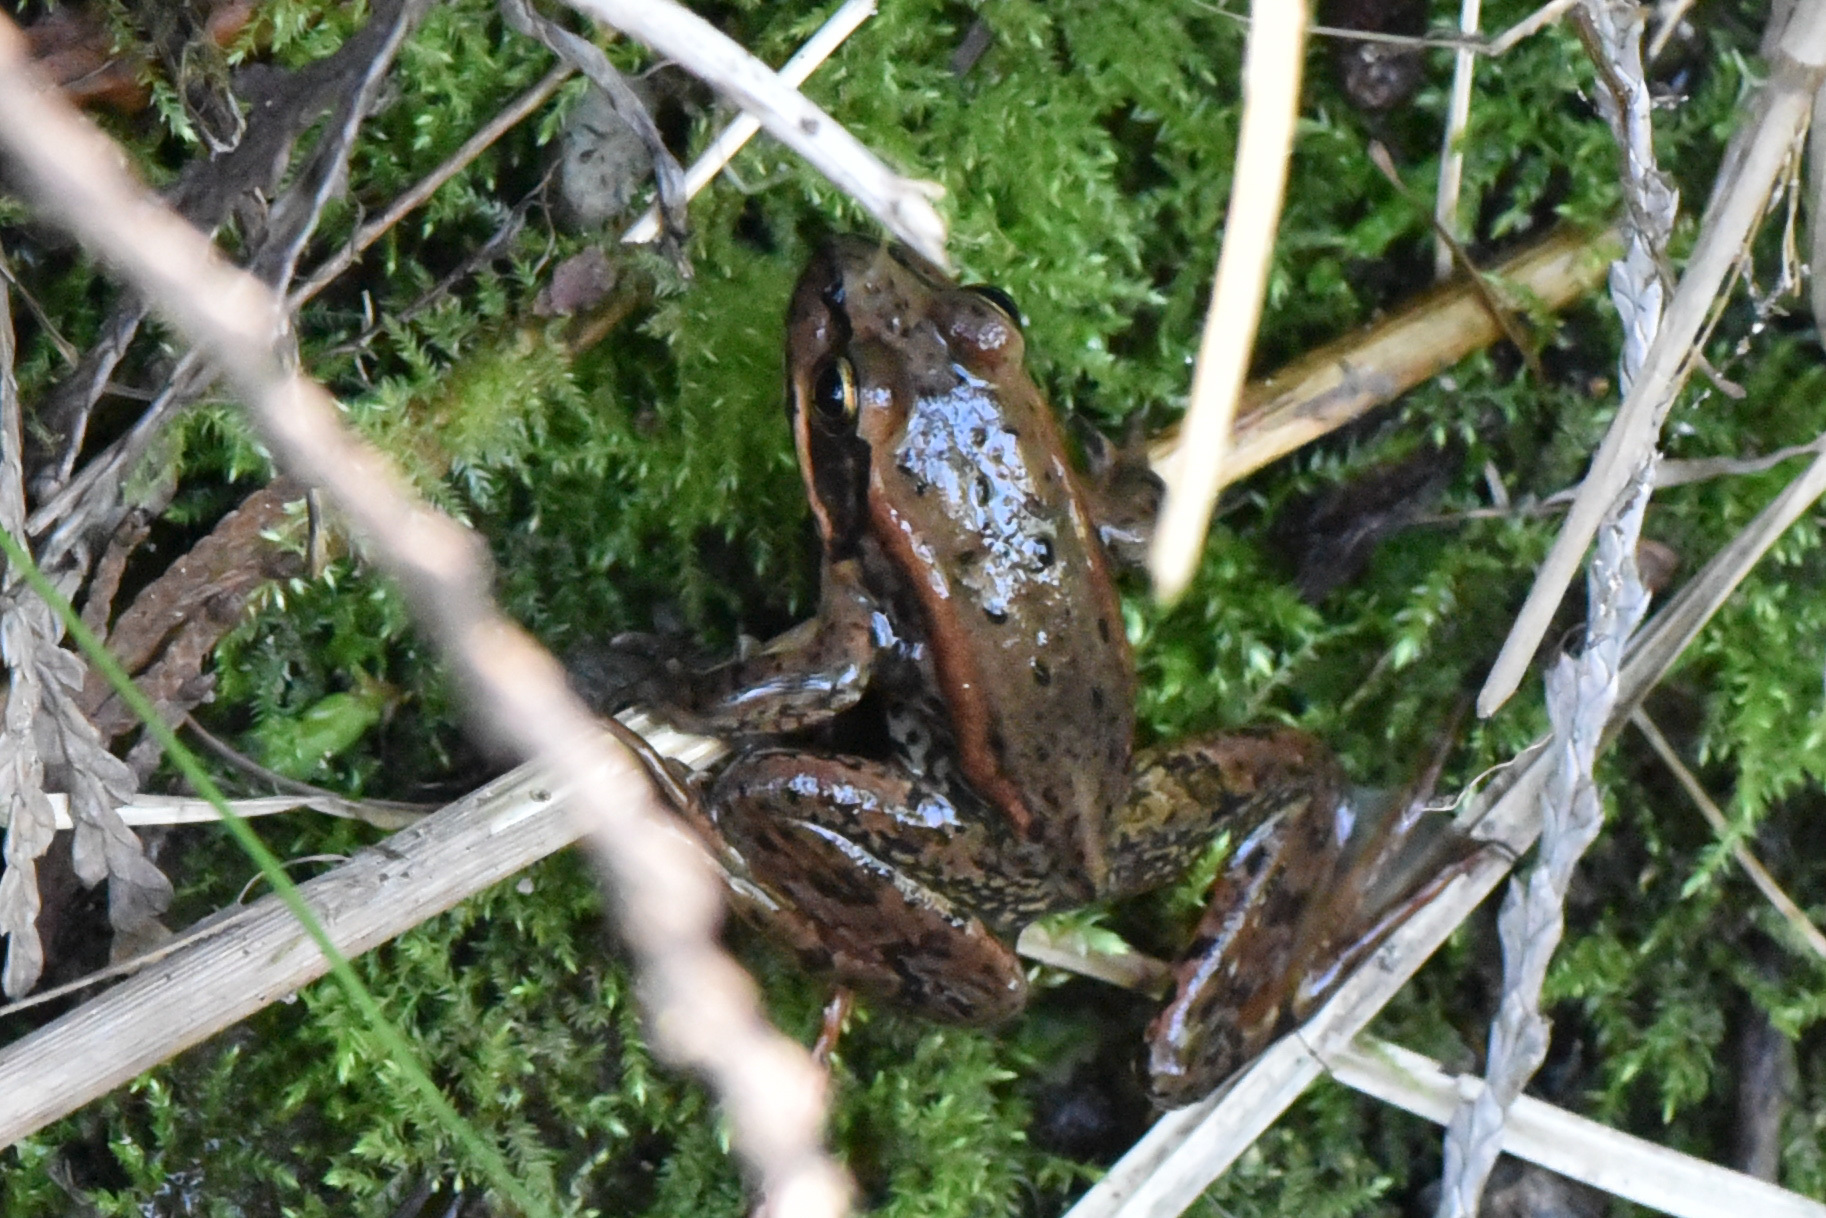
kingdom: Animalia
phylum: Chordata
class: Amphibia
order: Anura
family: Ranidae
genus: Rana
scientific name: Rana aurora
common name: Red-legged frog
